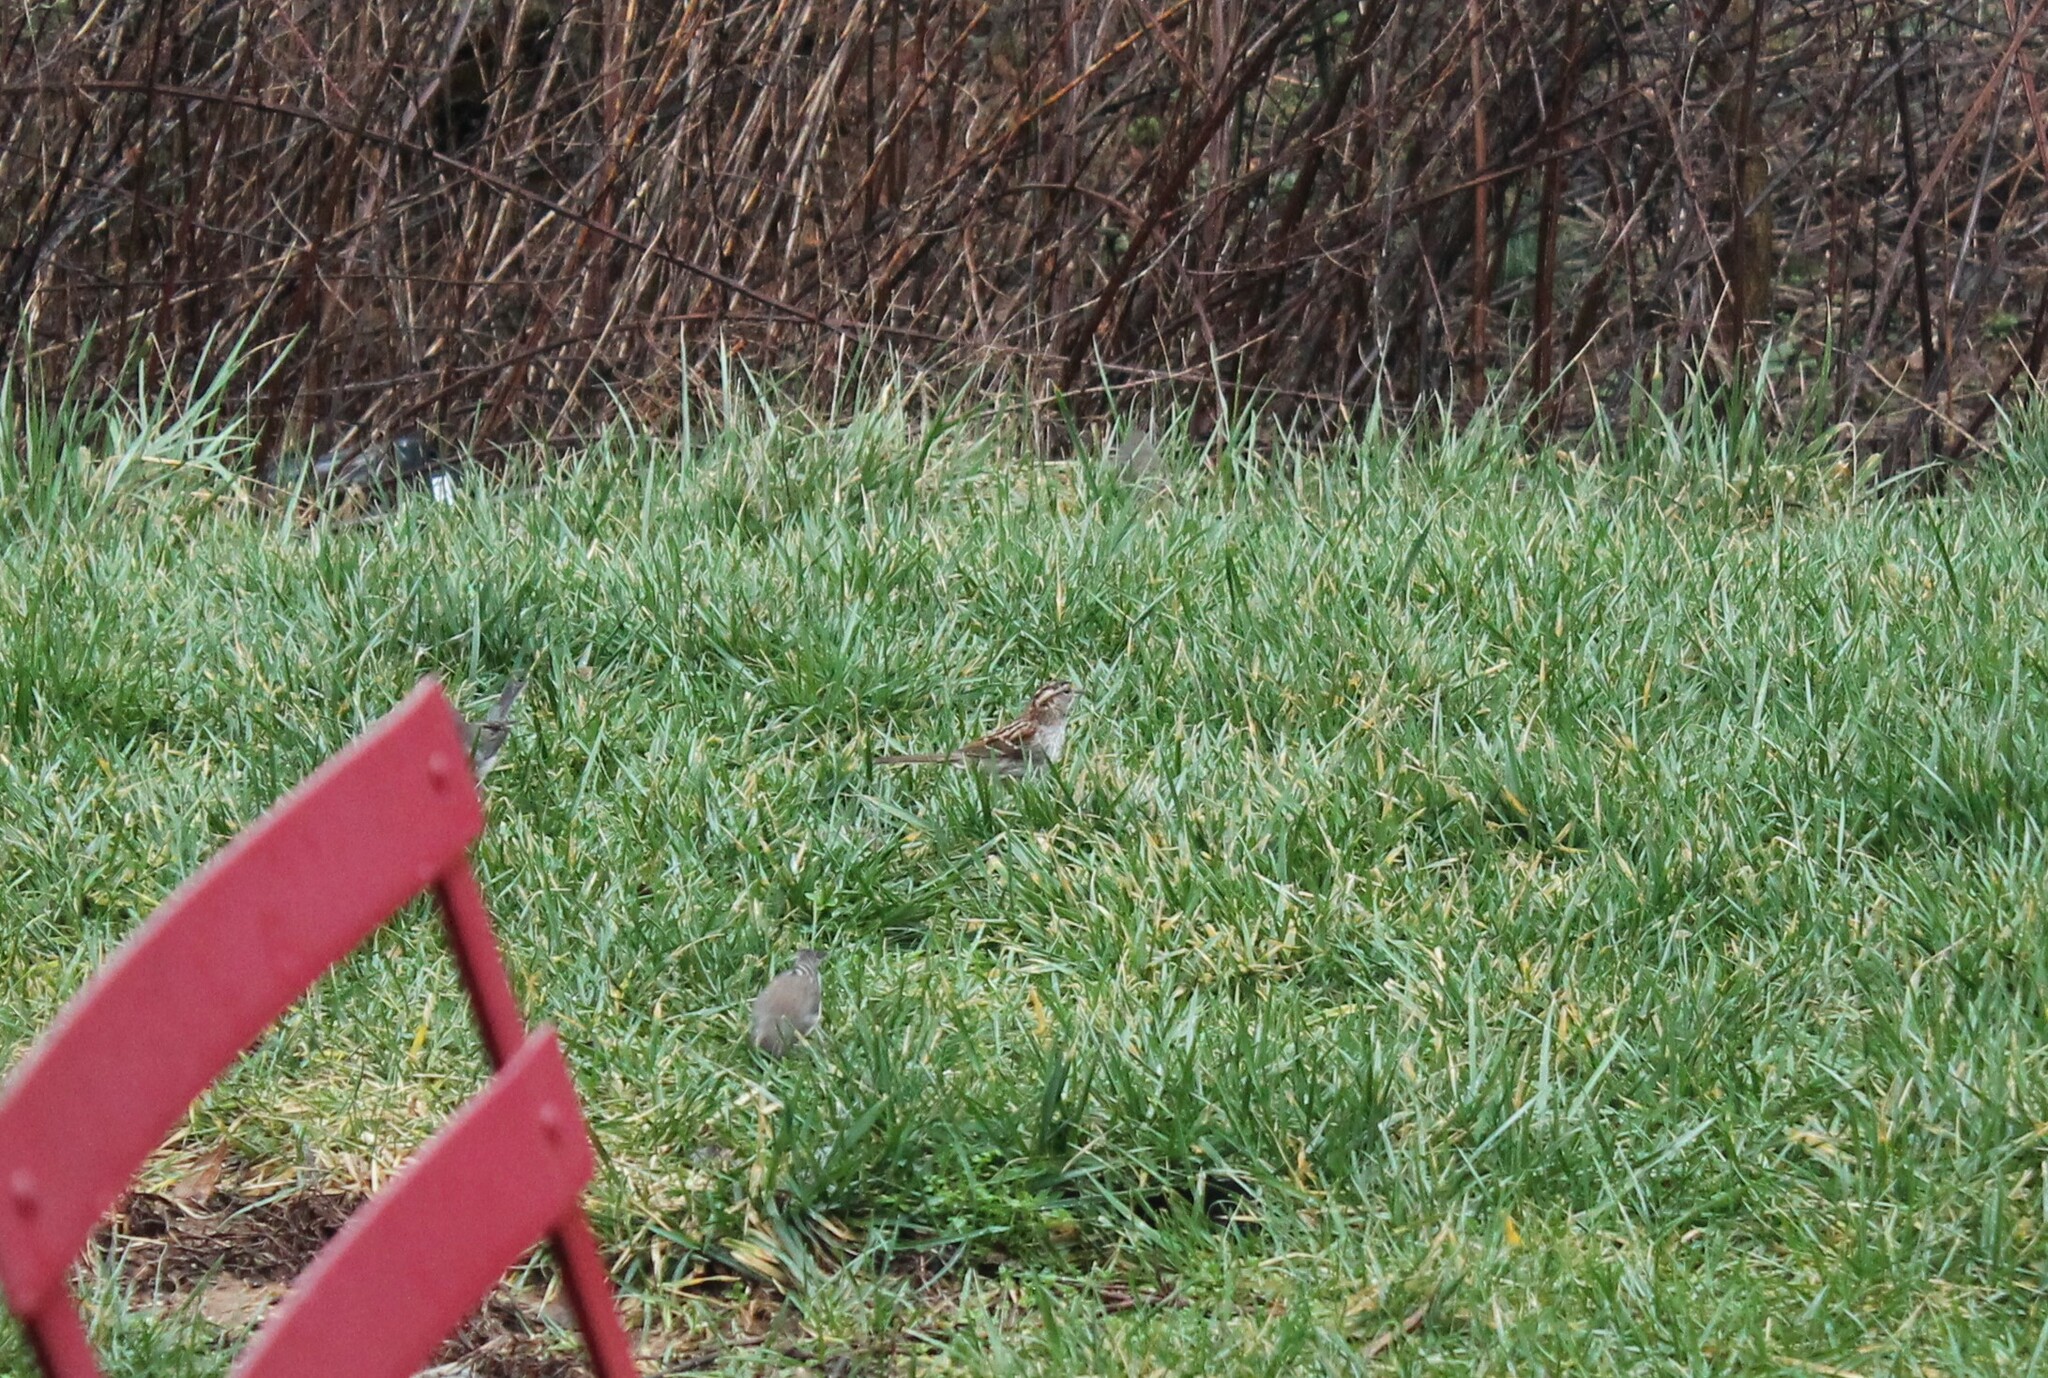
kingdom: Animalia
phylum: Chordata
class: Aves
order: Passeriformes
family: Passerellidae
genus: Zonotrichia
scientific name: Zonotrichia albicollis
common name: White-throated sparrow
